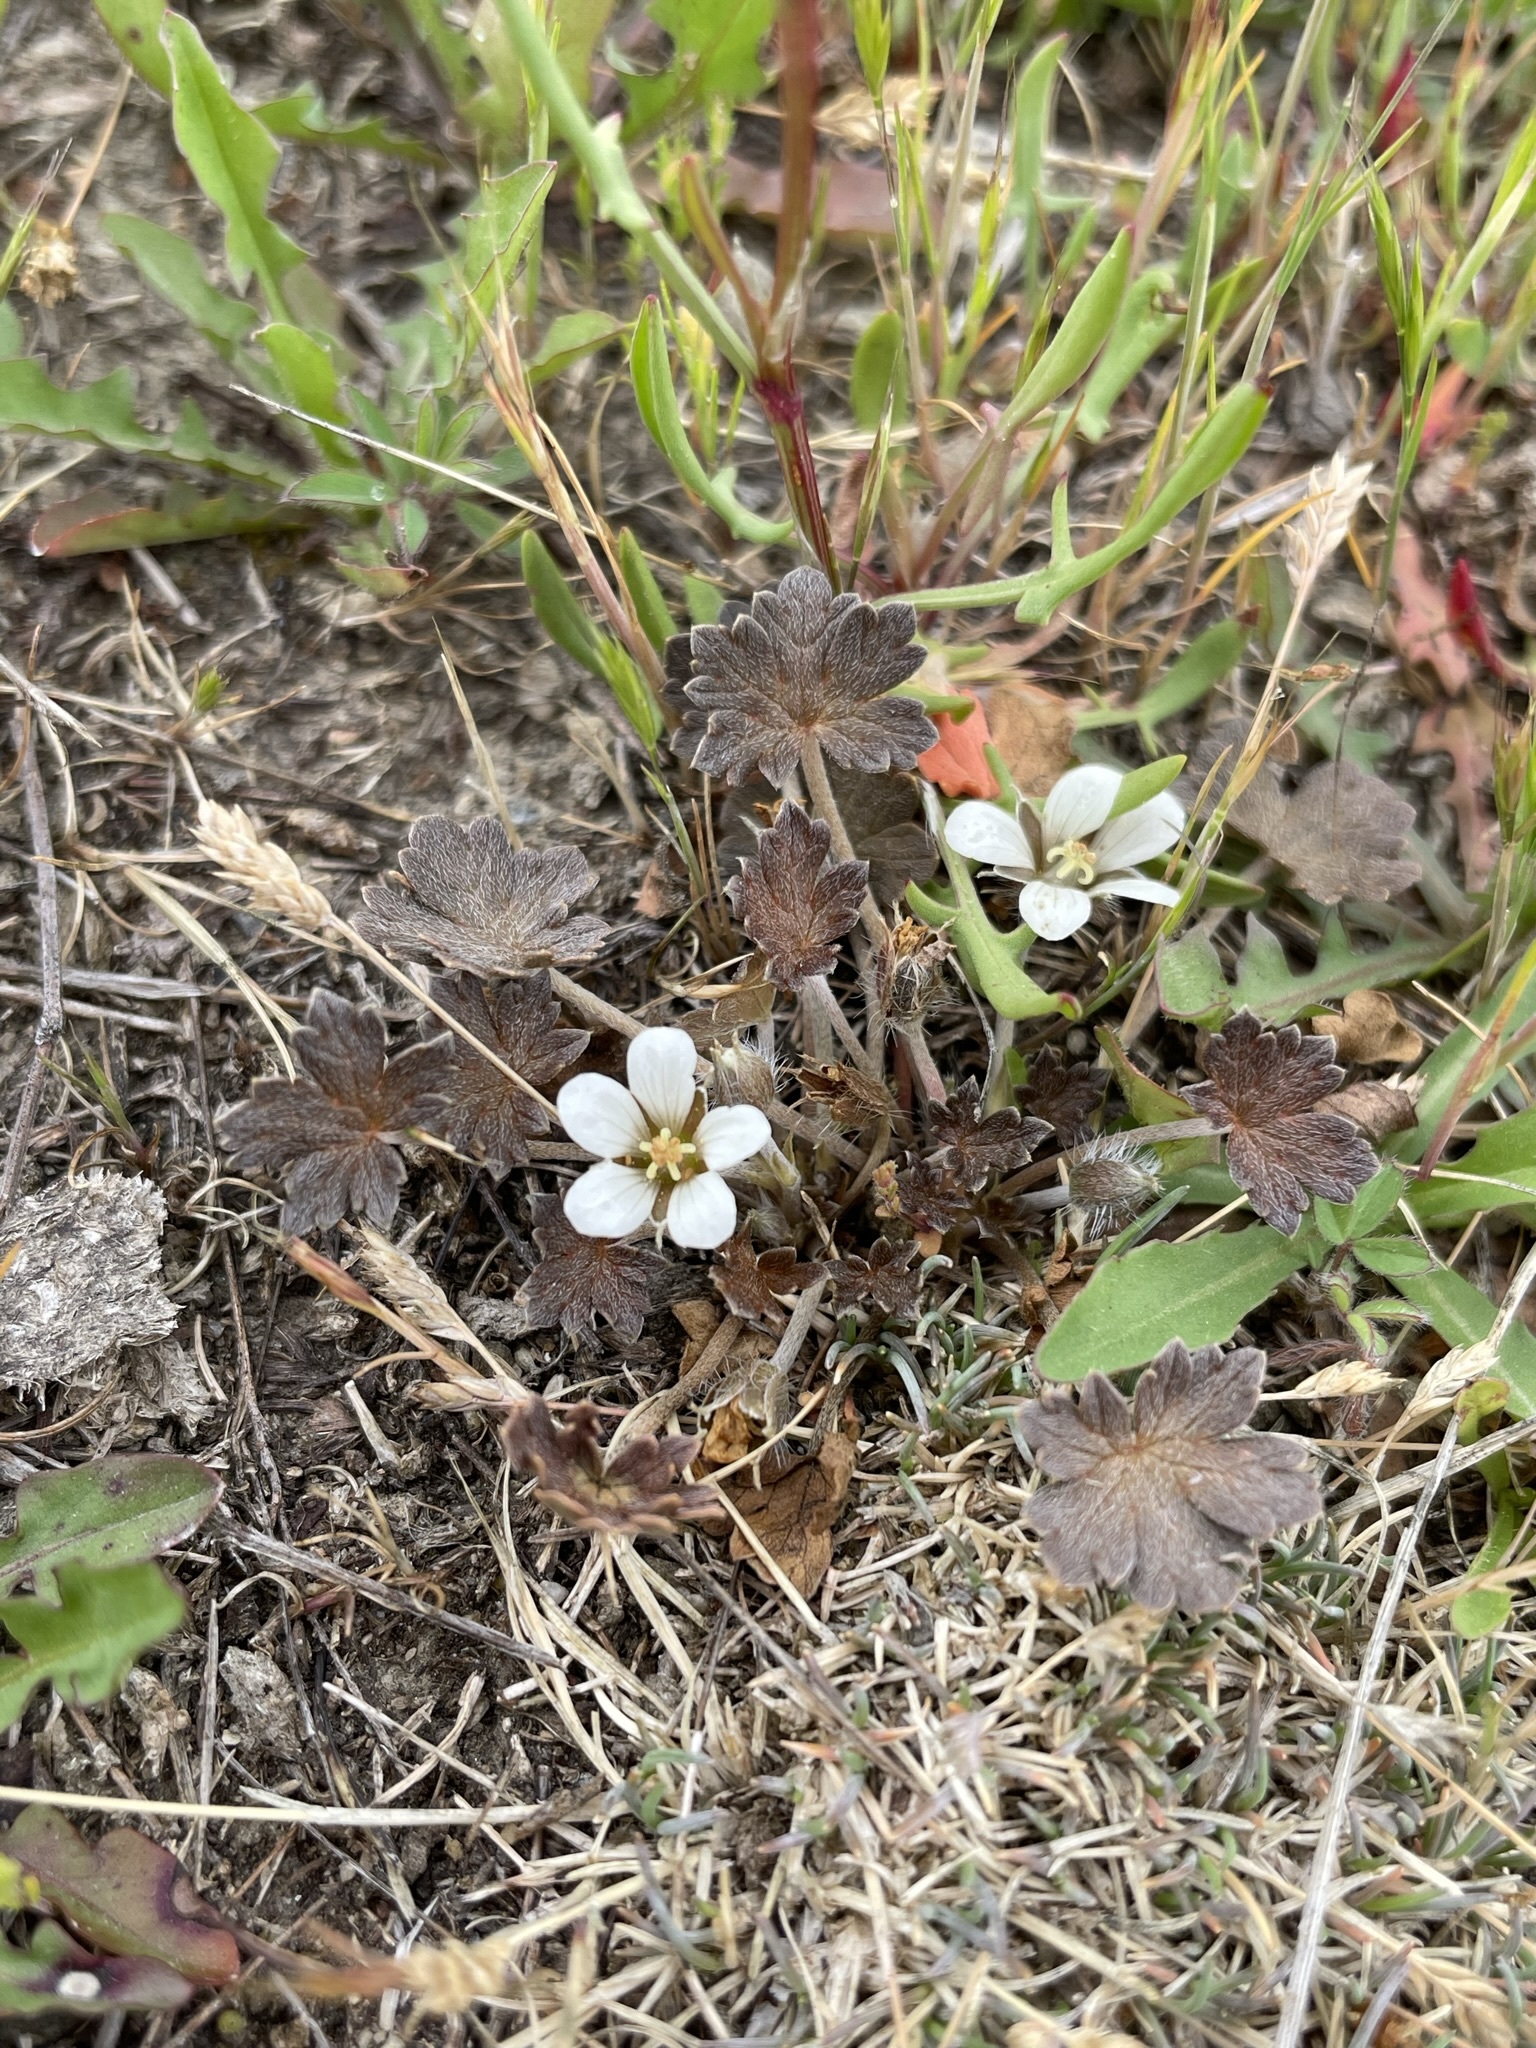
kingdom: Plantae
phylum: Tracheophyta
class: Magnoliopsida
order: Geraniales
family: Geraniaceae
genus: Geranium
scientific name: Geranium brevicaule
